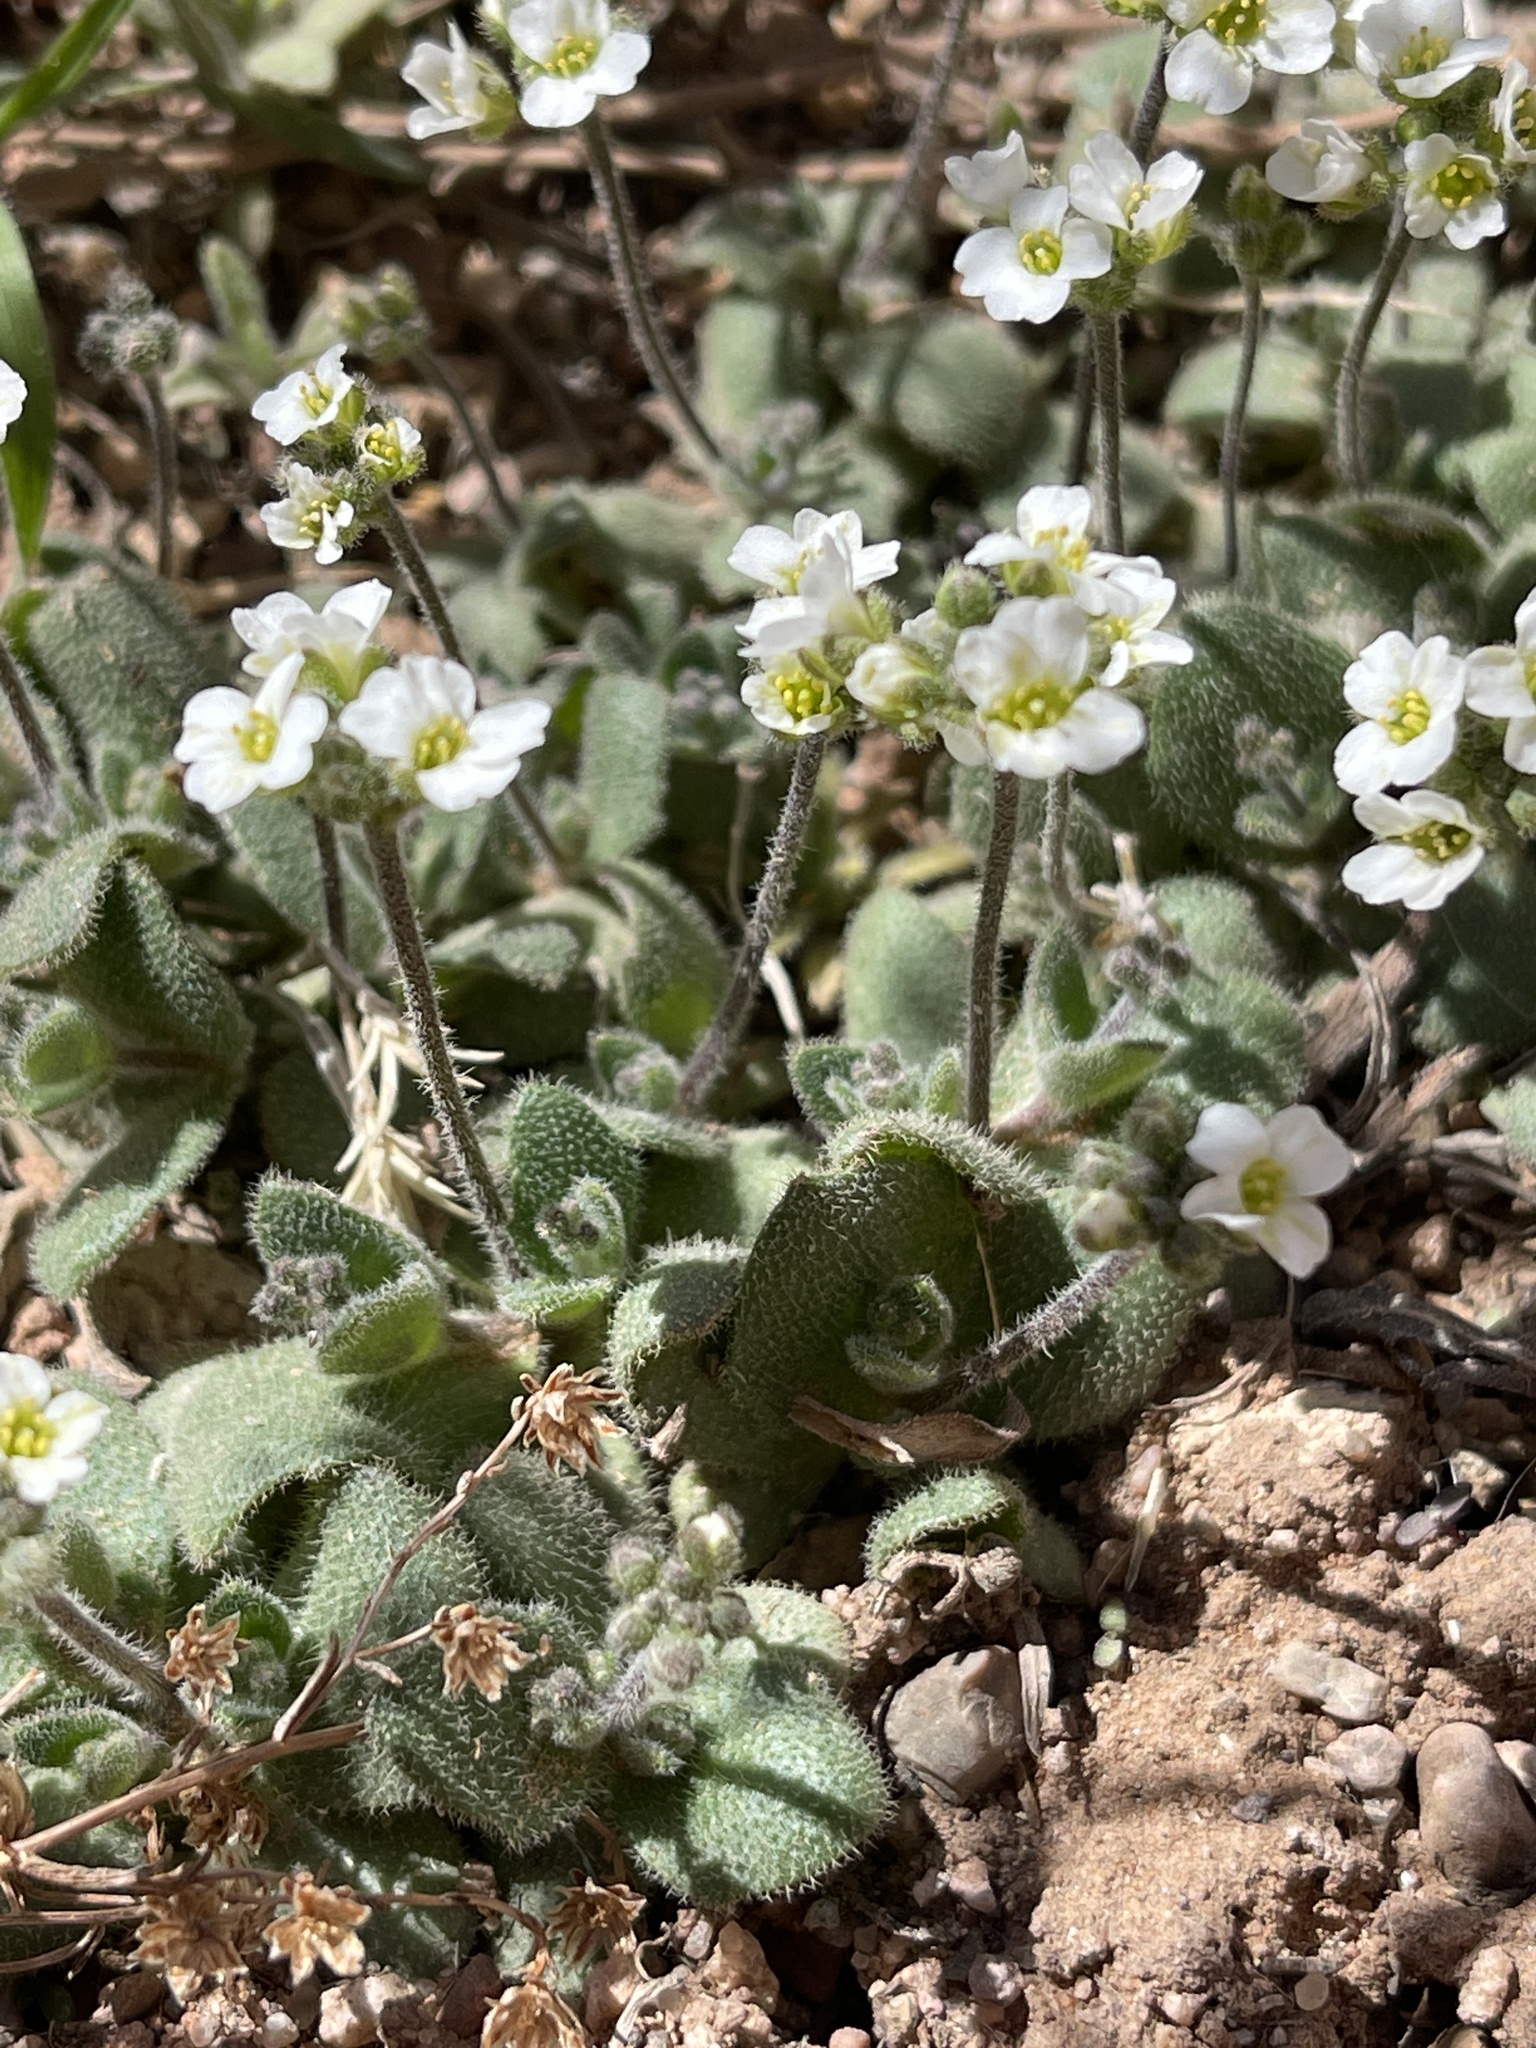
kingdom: Plantae
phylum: Tracheophyta
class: Magnoliopsida
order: Brassicales
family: Brassicaceae
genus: Tomostima
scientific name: Tomostima cuneifolia
